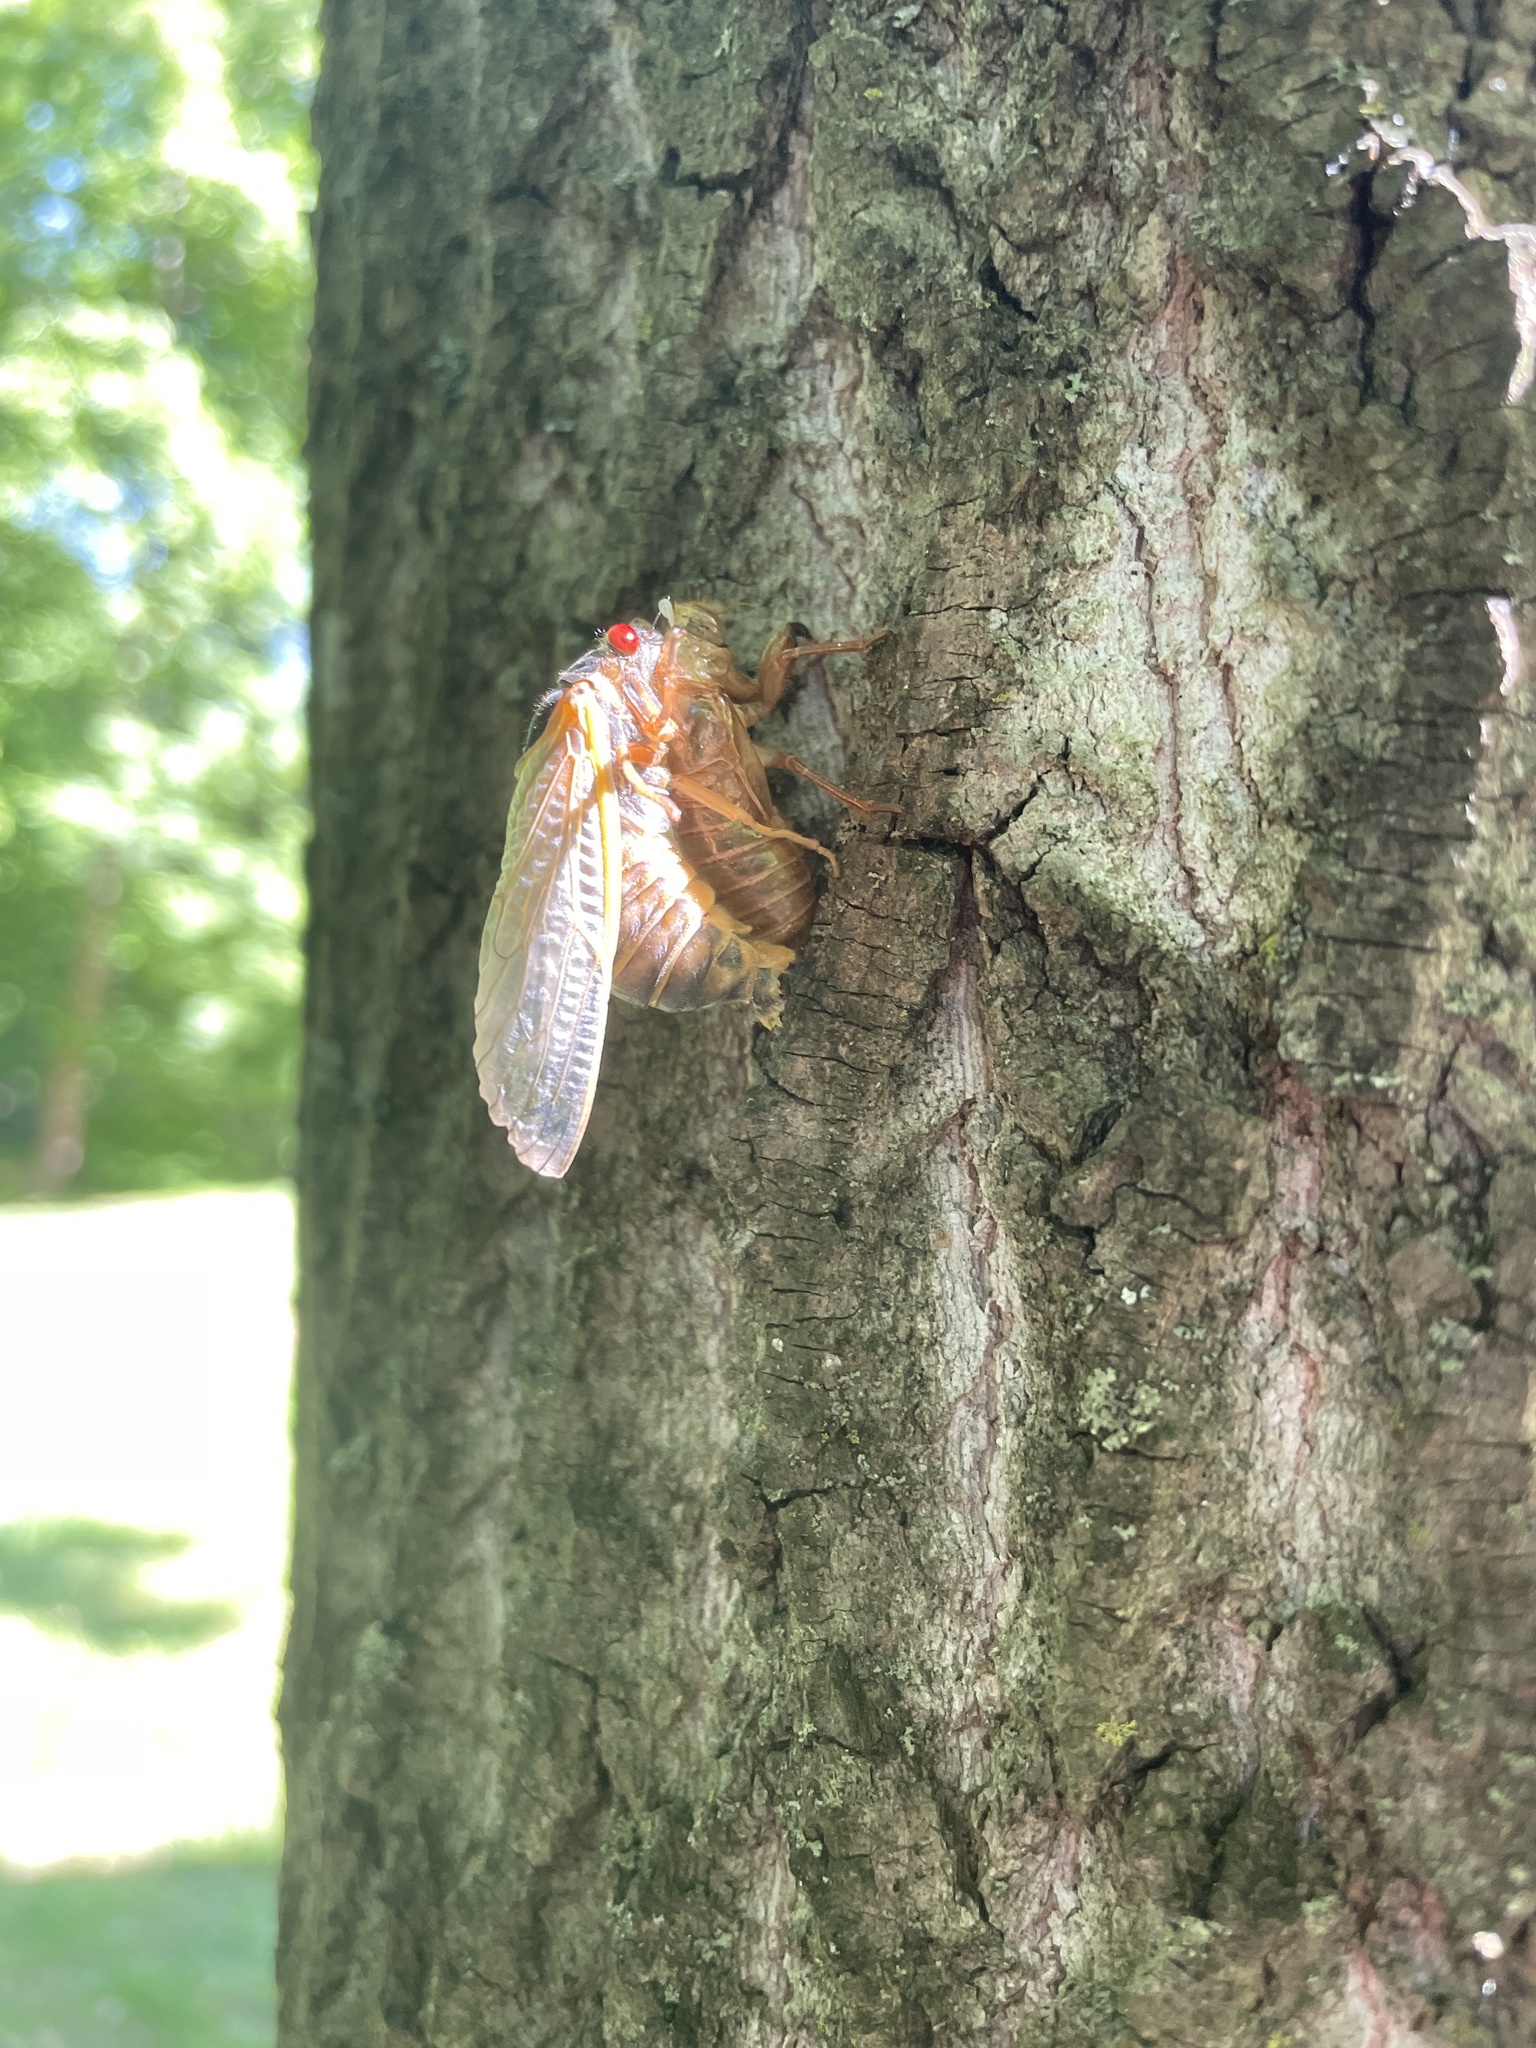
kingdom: Animalia
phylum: Arthropoda
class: Insecta
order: Hemiptera
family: Cicadidae
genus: Magicicada
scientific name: Magicicada septendecim
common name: Periodical cicada
